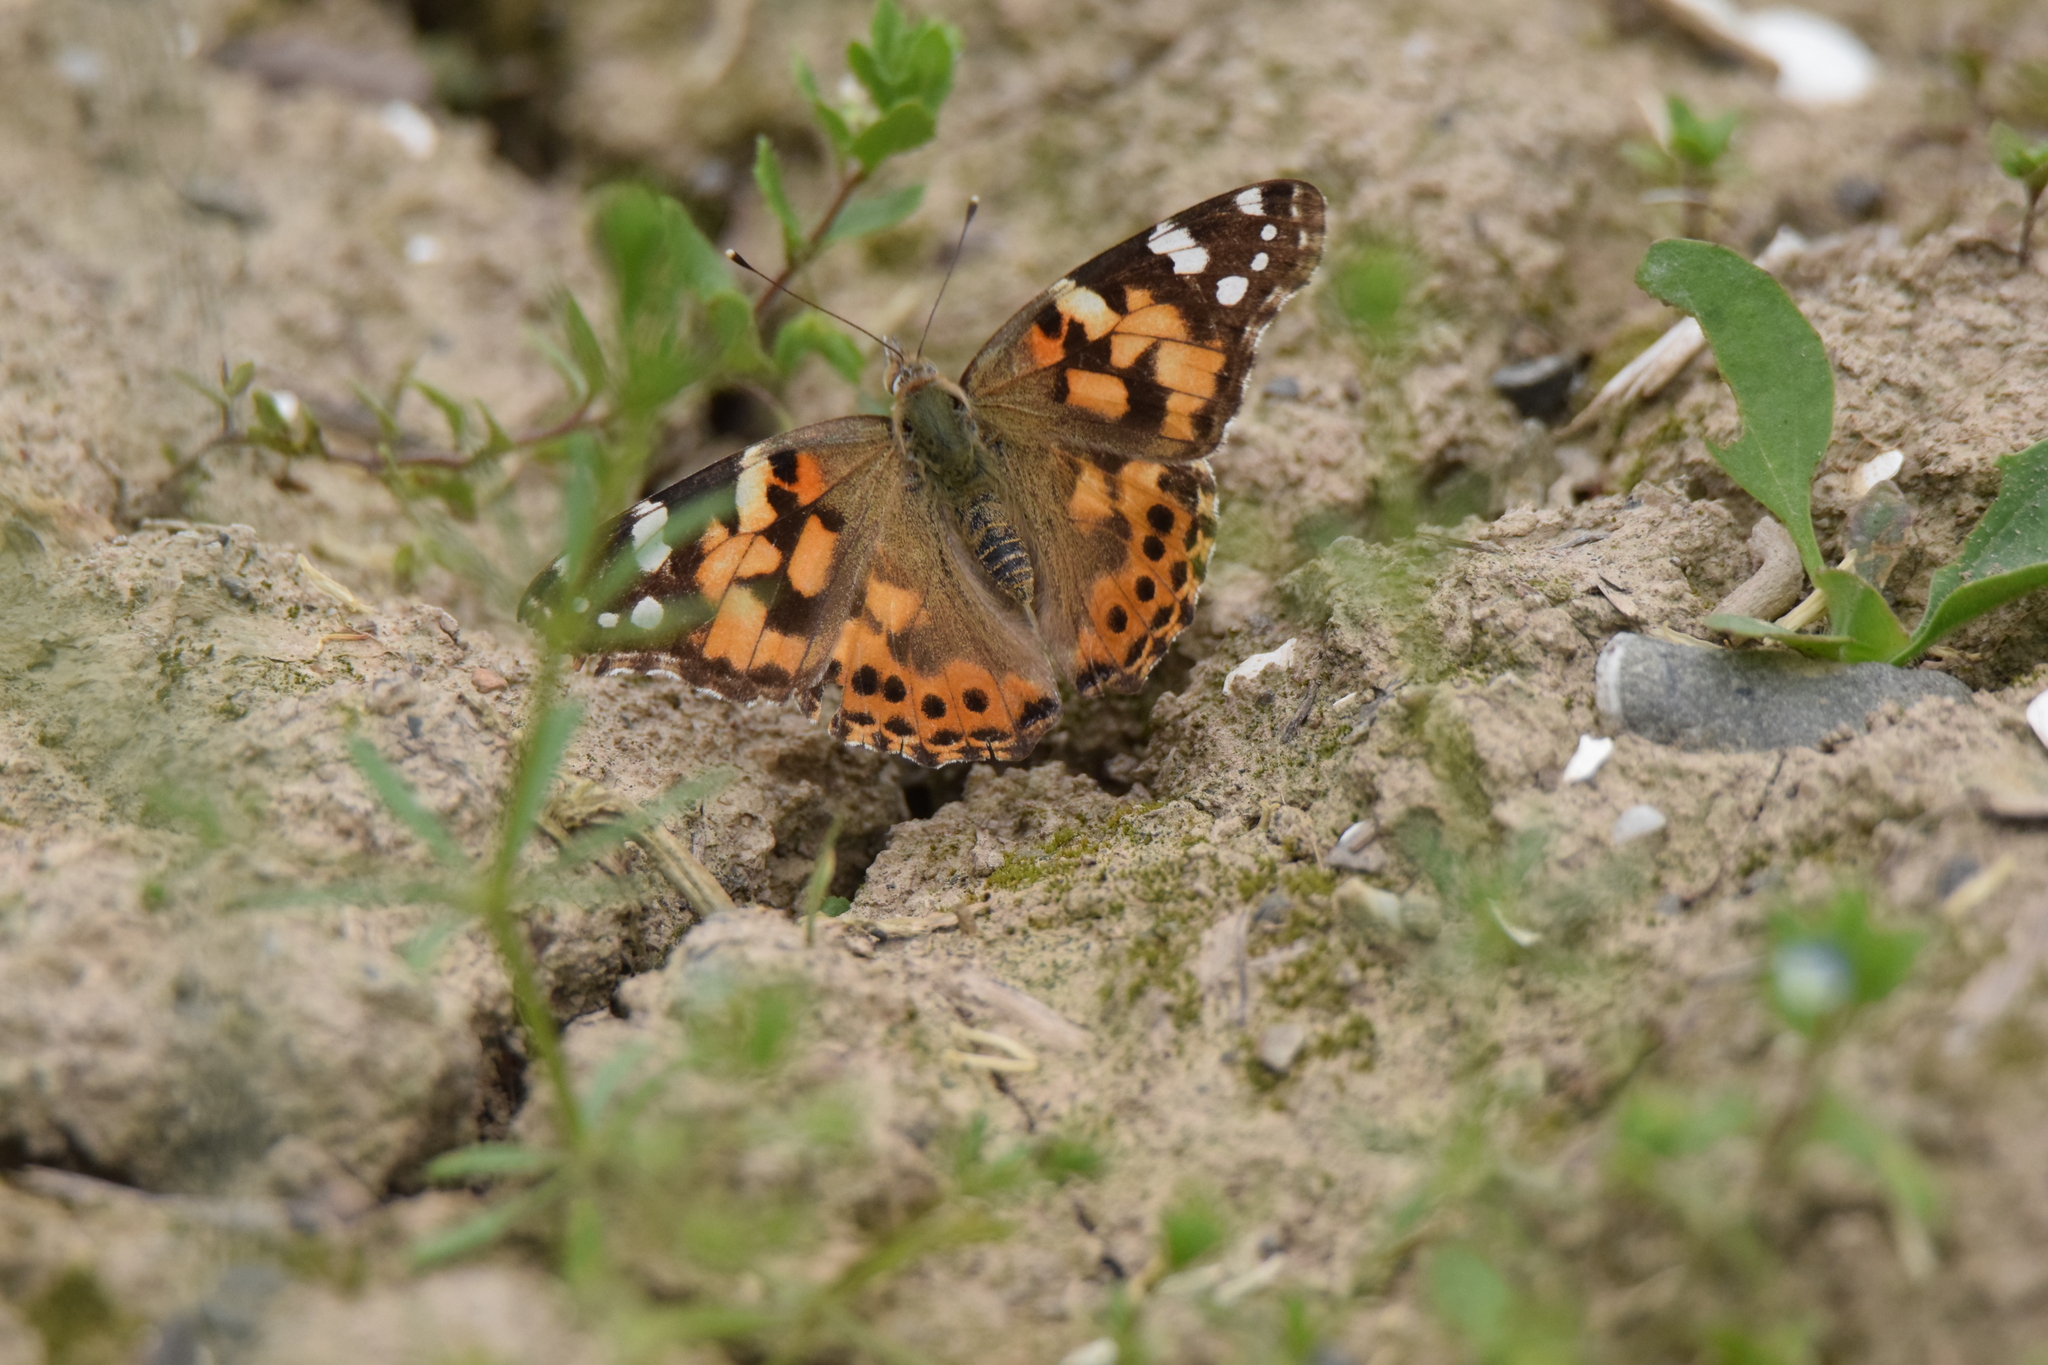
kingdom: Animalia
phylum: Arthropoda
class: Insecta
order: Lepidoptera
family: Nymphalidae
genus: Vanessa
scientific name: Vanessa cardui
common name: Painted lady
